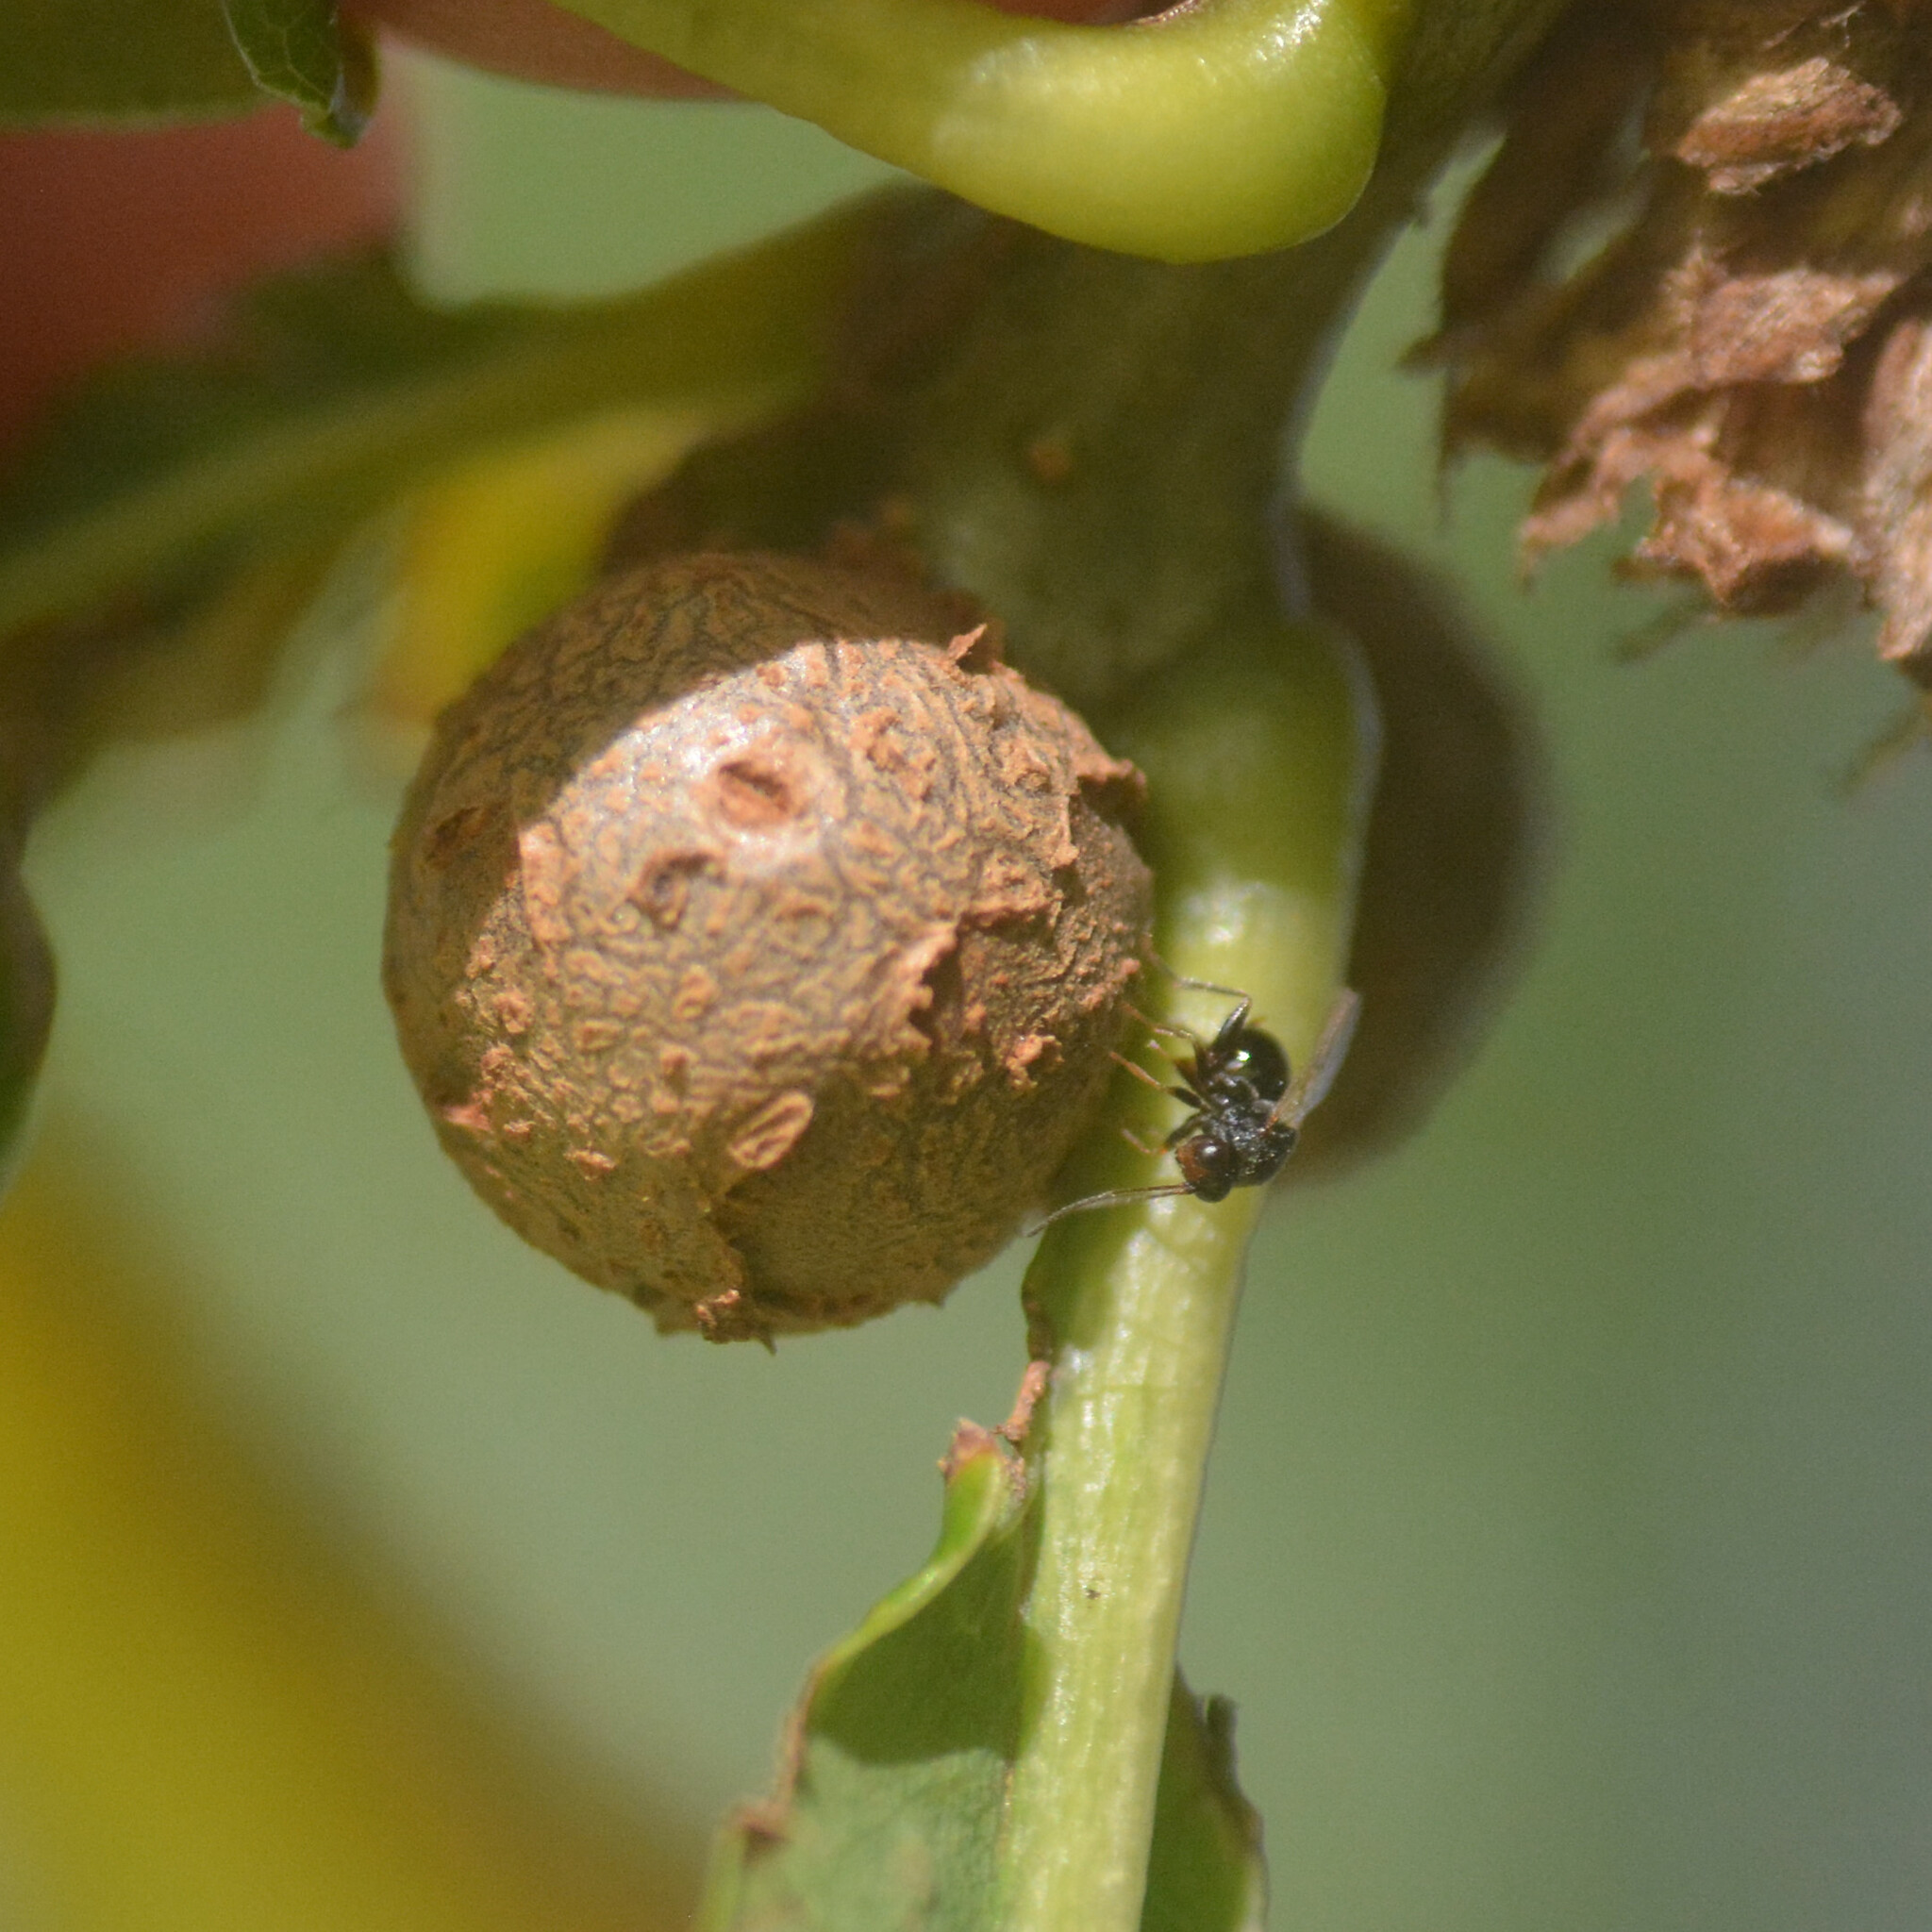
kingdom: Animalia
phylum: Arthropoda
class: Insecta
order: Hymenoptera
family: Cynipidae
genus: Andricus
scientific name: Andricus lignicolus
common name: Cola-nut gall
